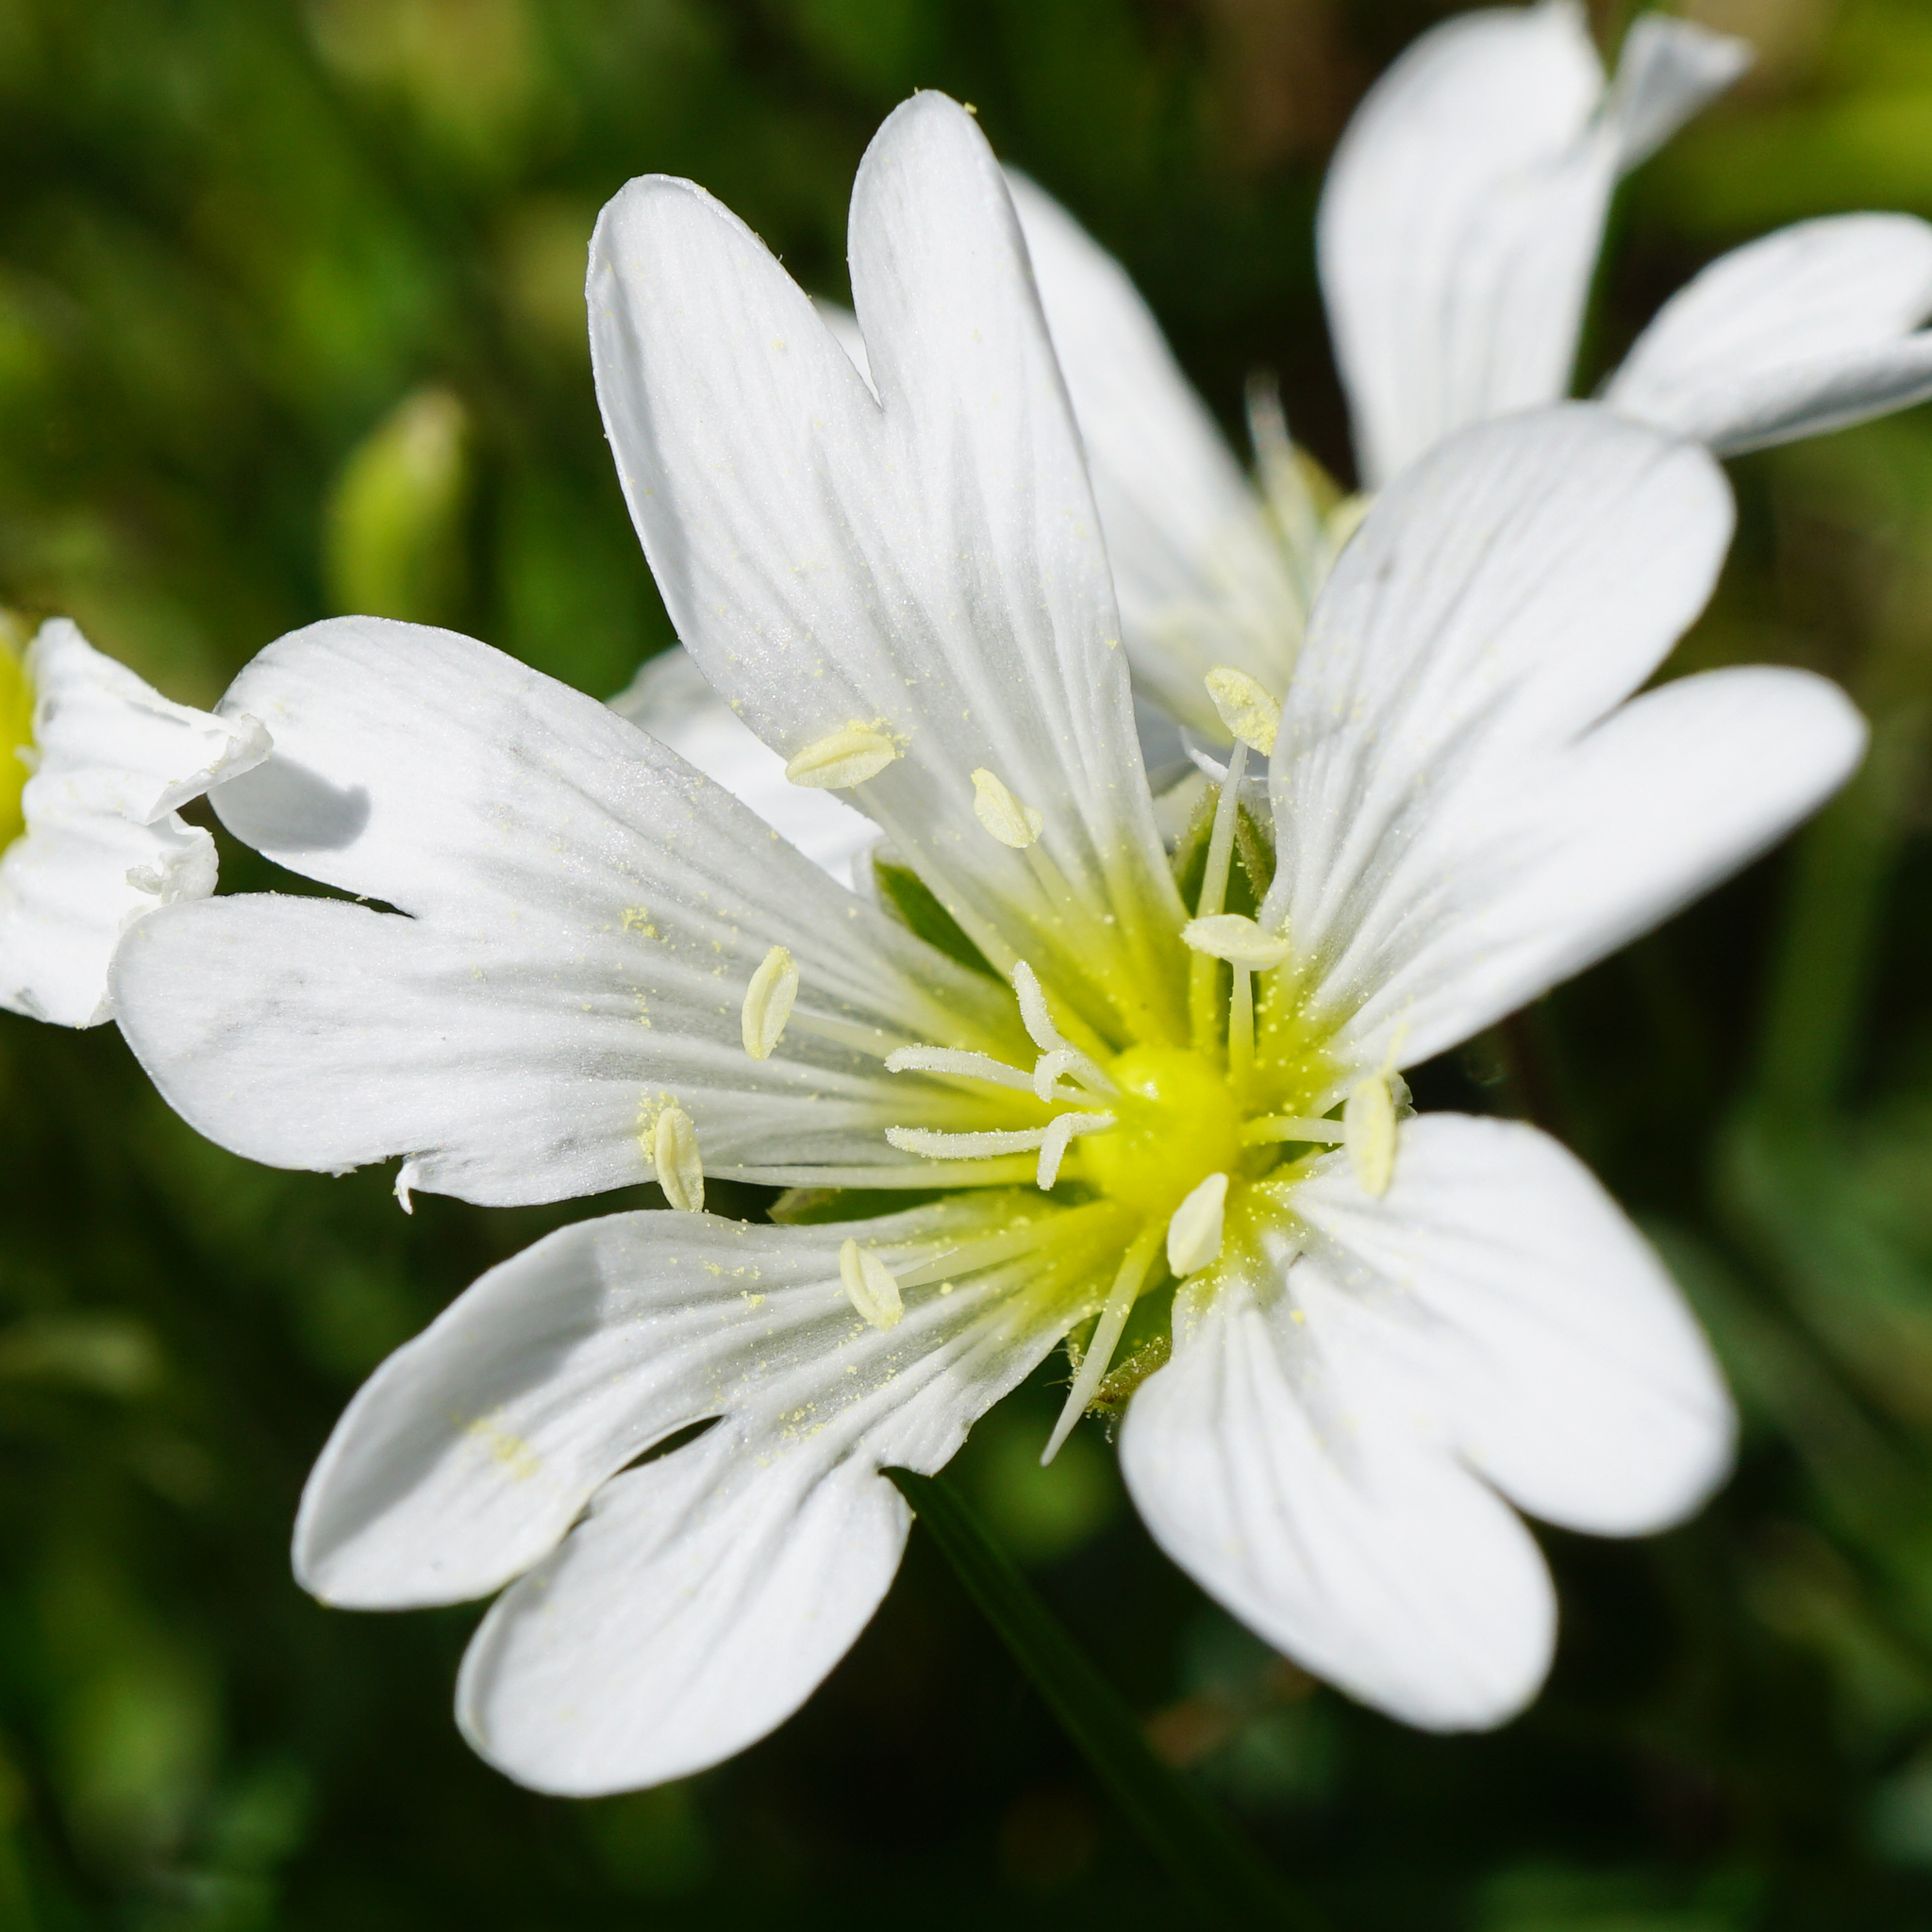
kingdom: Plantae
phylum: Tracheophyta
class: Magnoliopsida
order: Caryophyllales
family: Caryophyllaceae
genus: Cerastium
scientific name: Cerastium arvense
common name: Field mouse-ear
